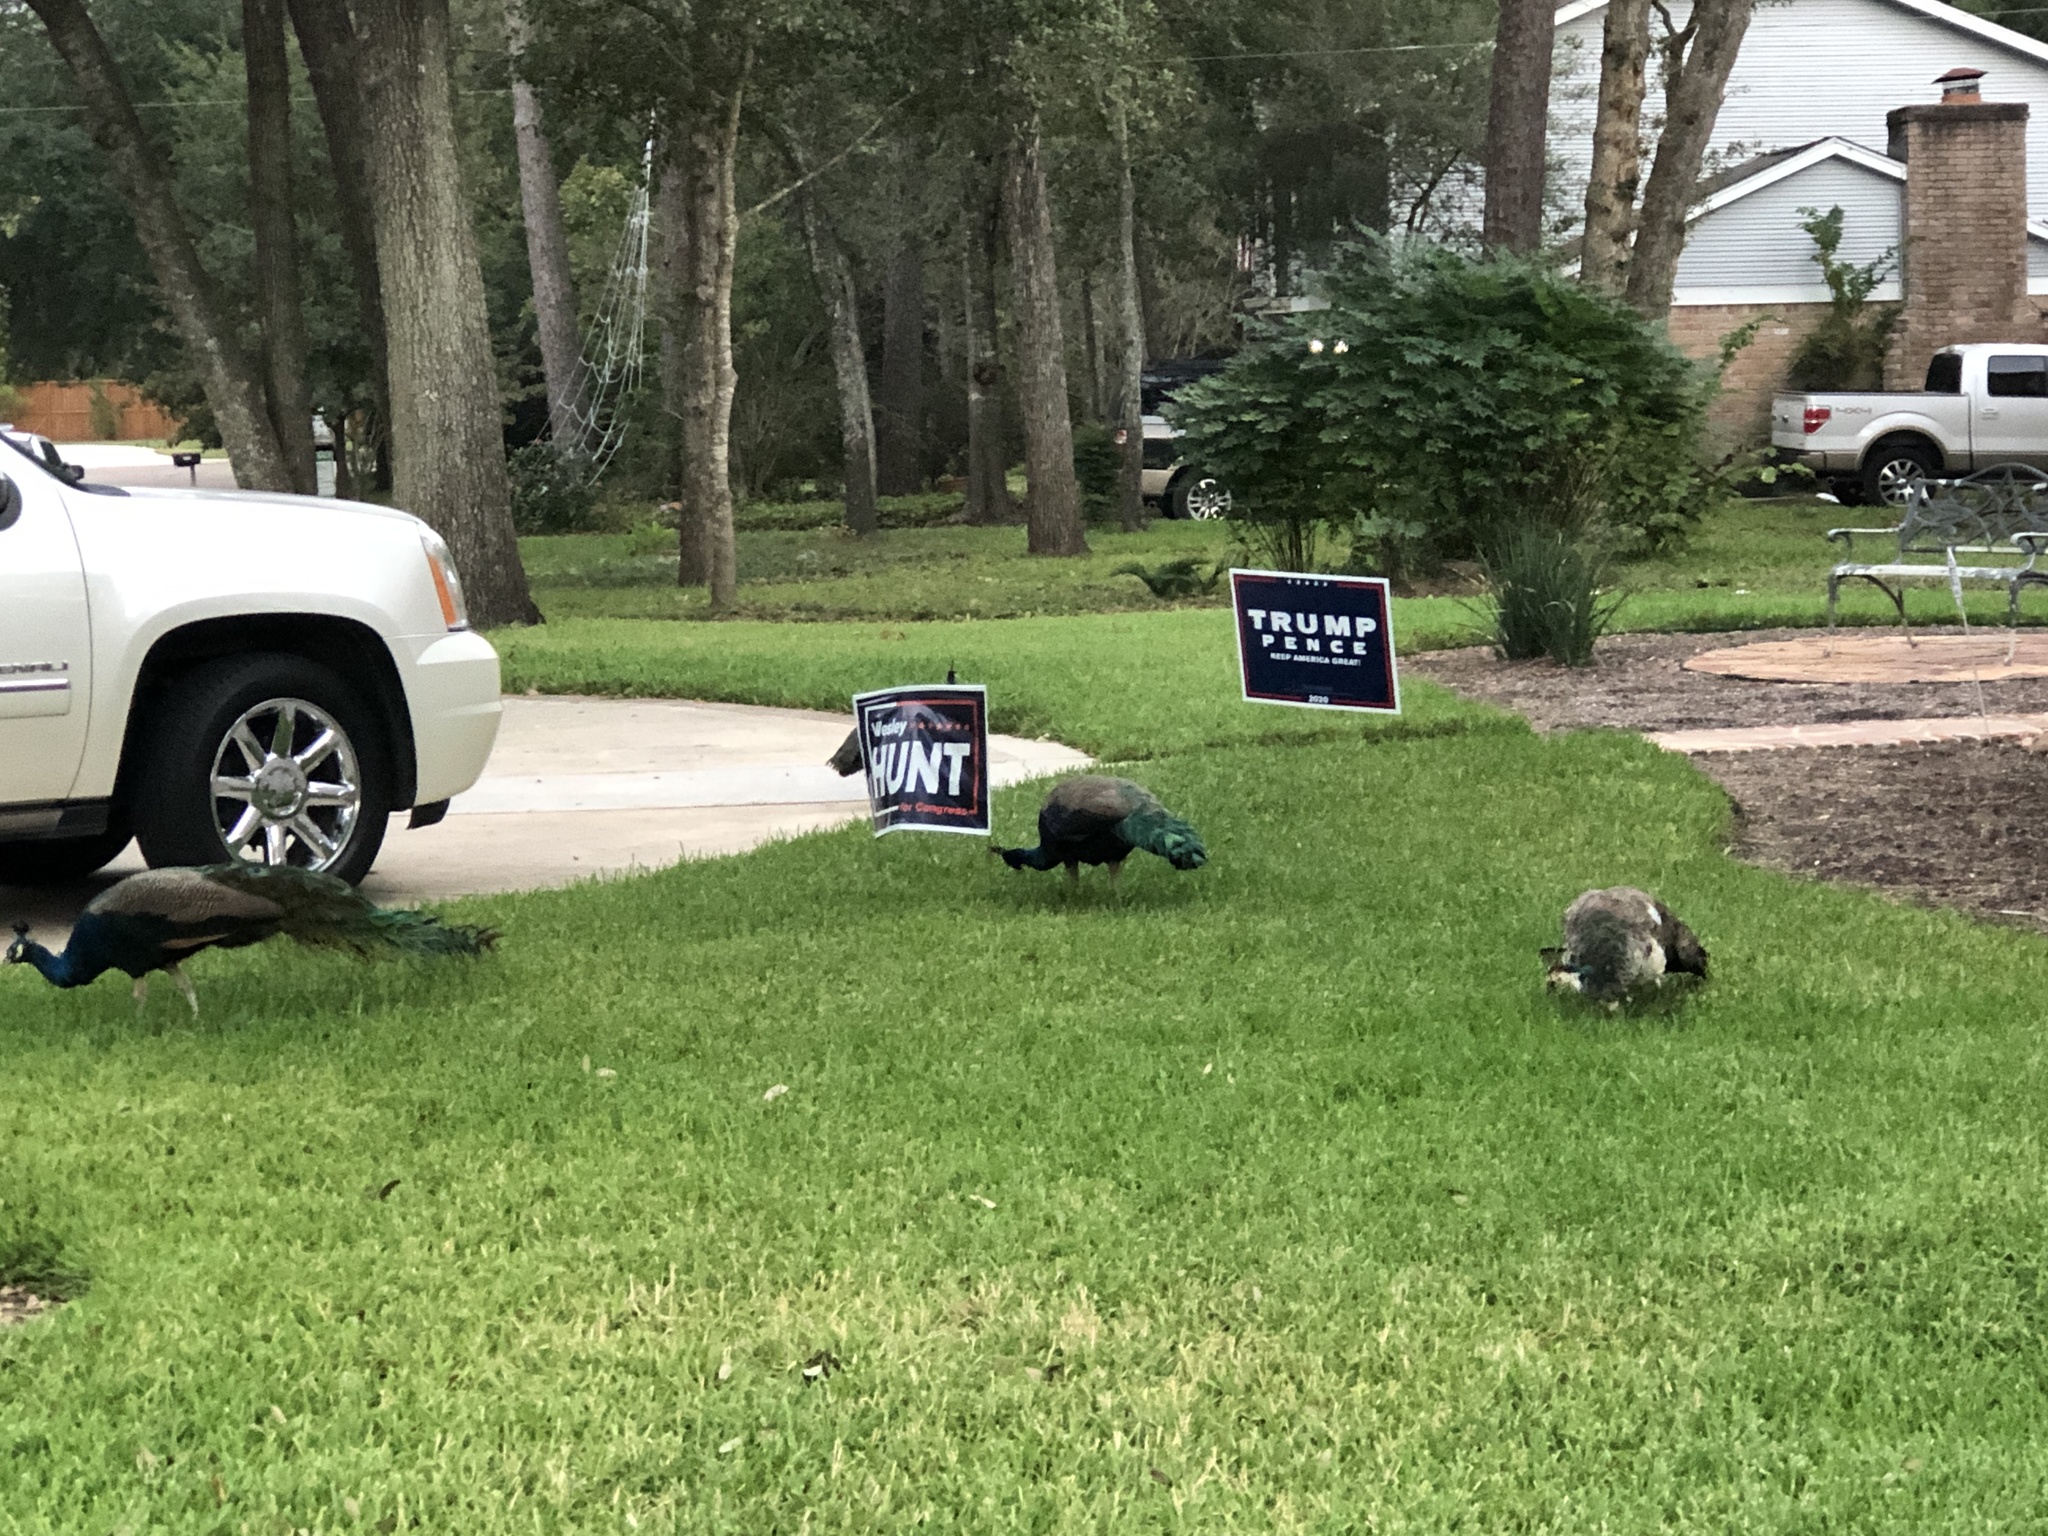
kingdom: Animalia
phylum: Chordata
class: Aves
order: Galliformes
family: Phasianidae
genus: Pavo
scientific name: Pavo cristatus
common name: Indian peafowl
